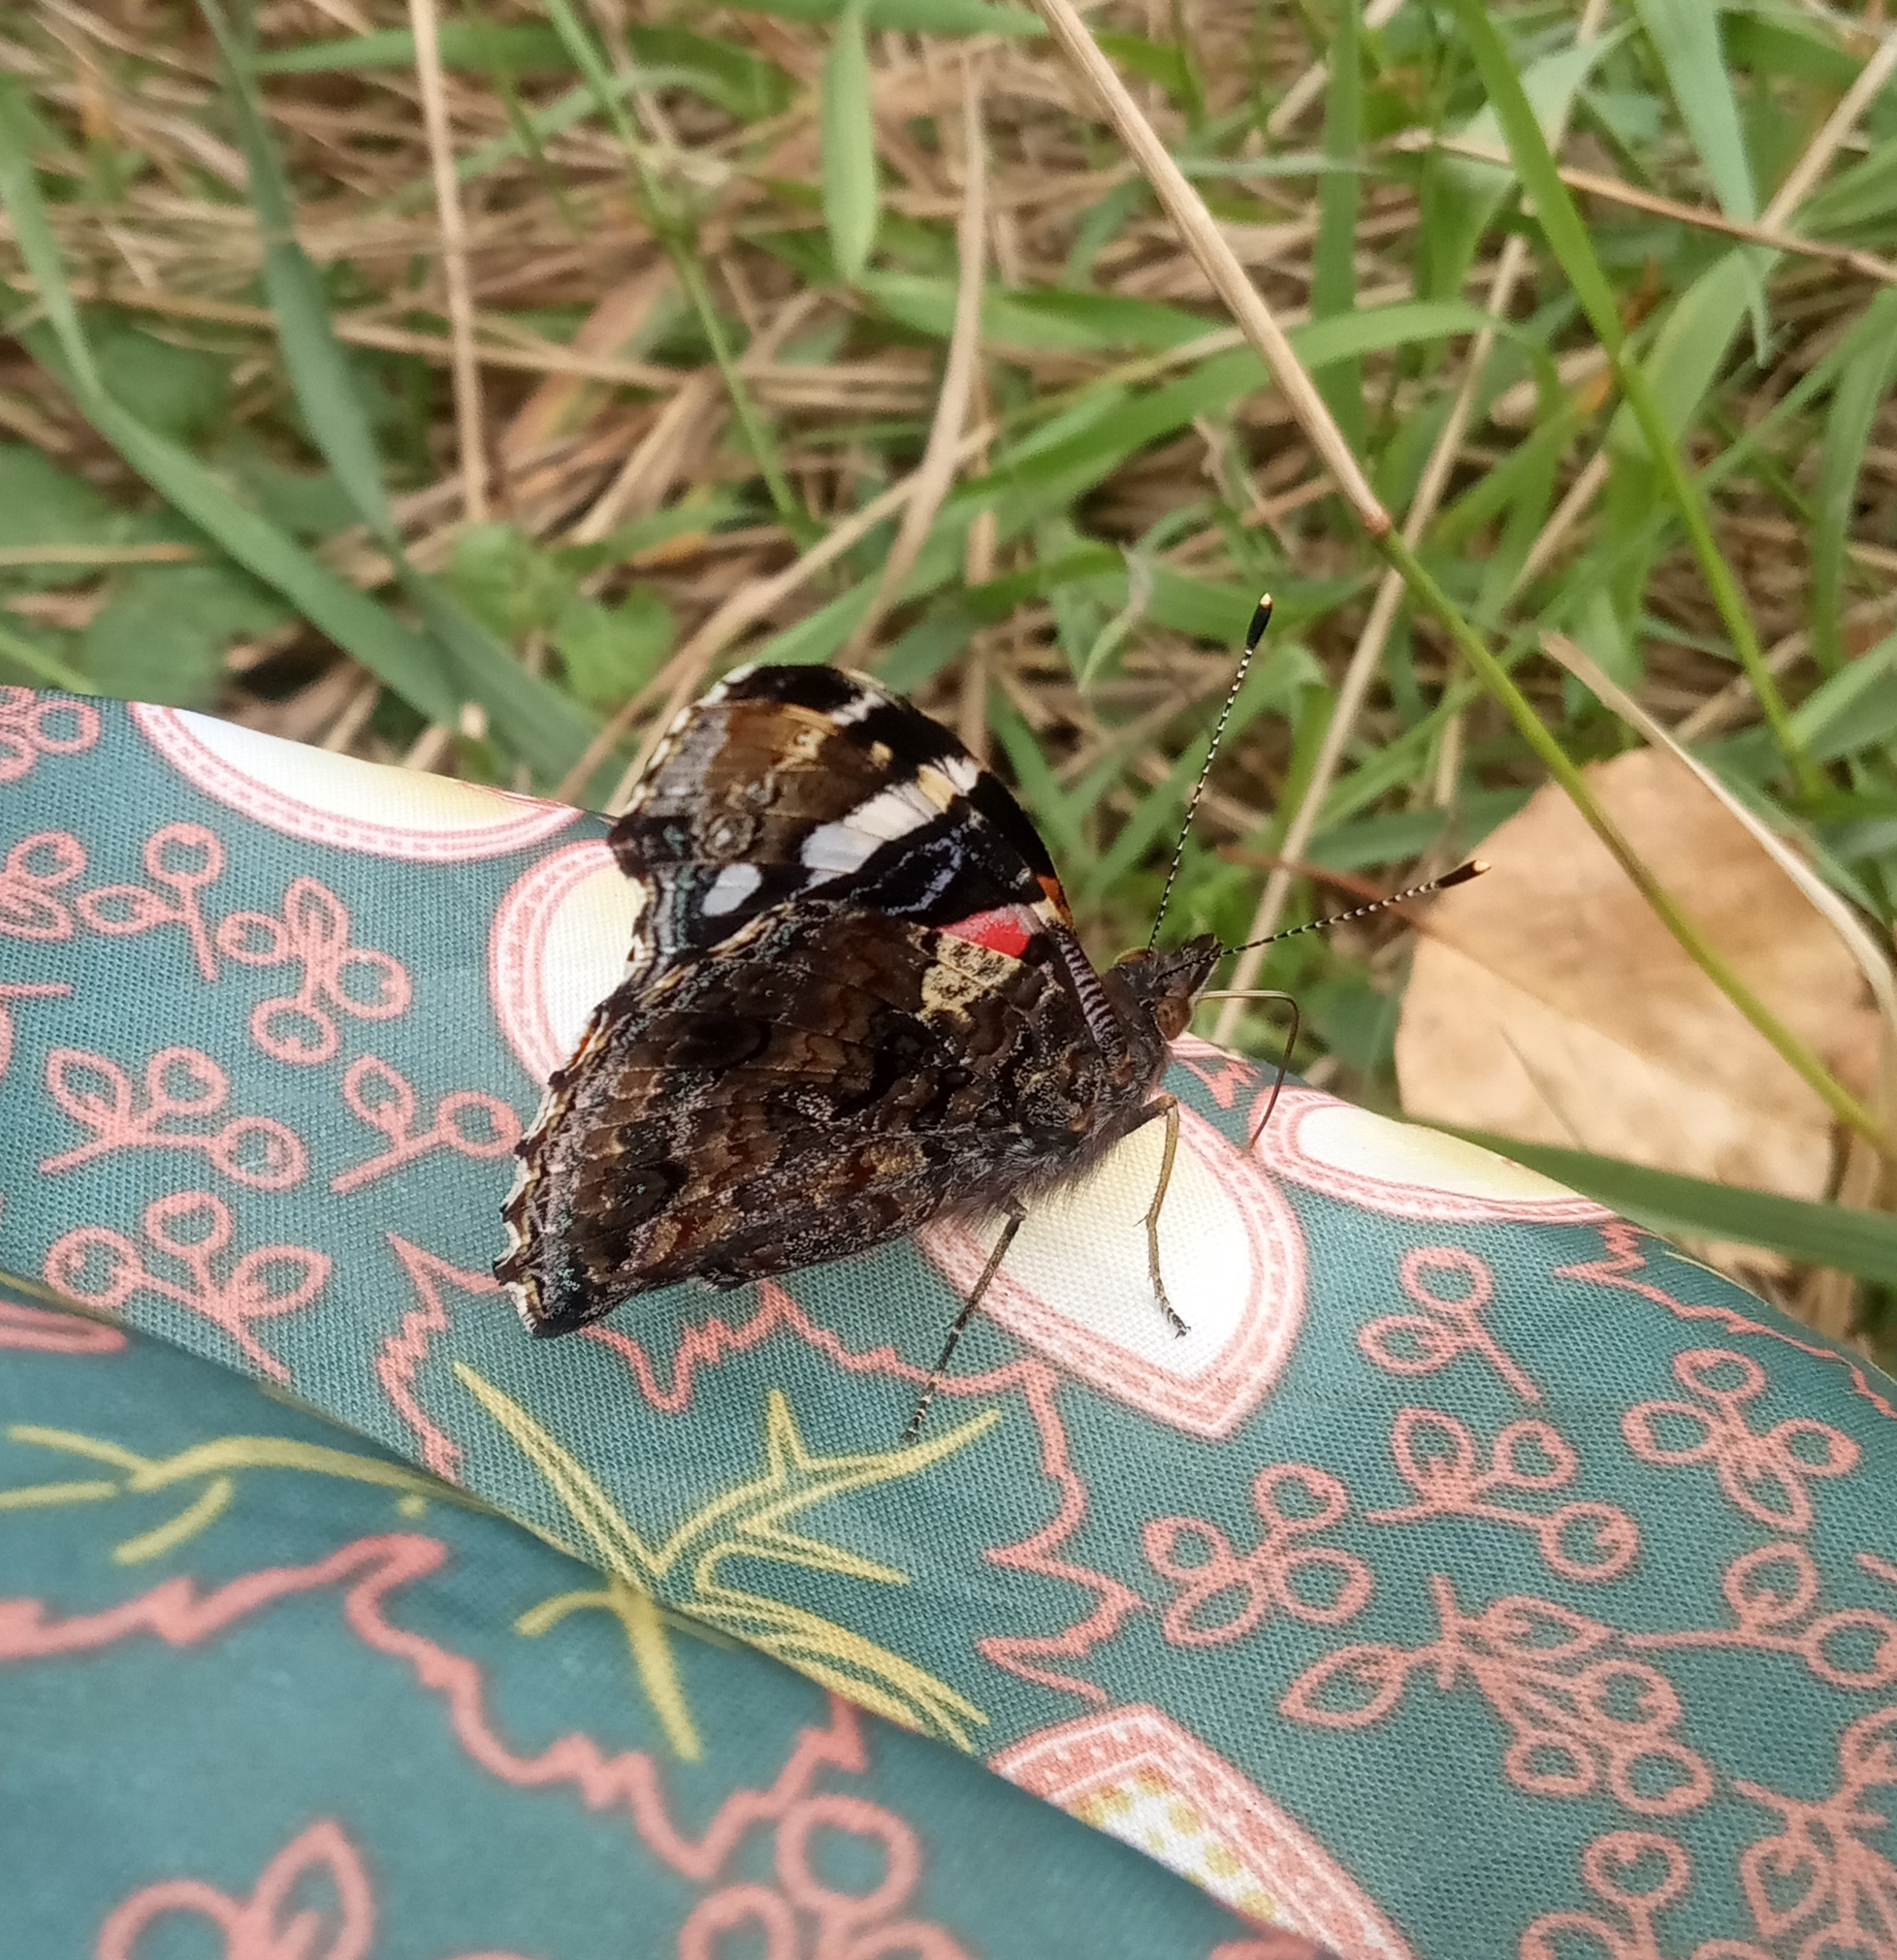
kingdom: Animalia
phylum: Arthropoda
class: Insecta
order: Lepidoptera
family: Nymphalidae
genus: Vanessa
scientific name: Vanessa atalanta
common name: Red admiral
